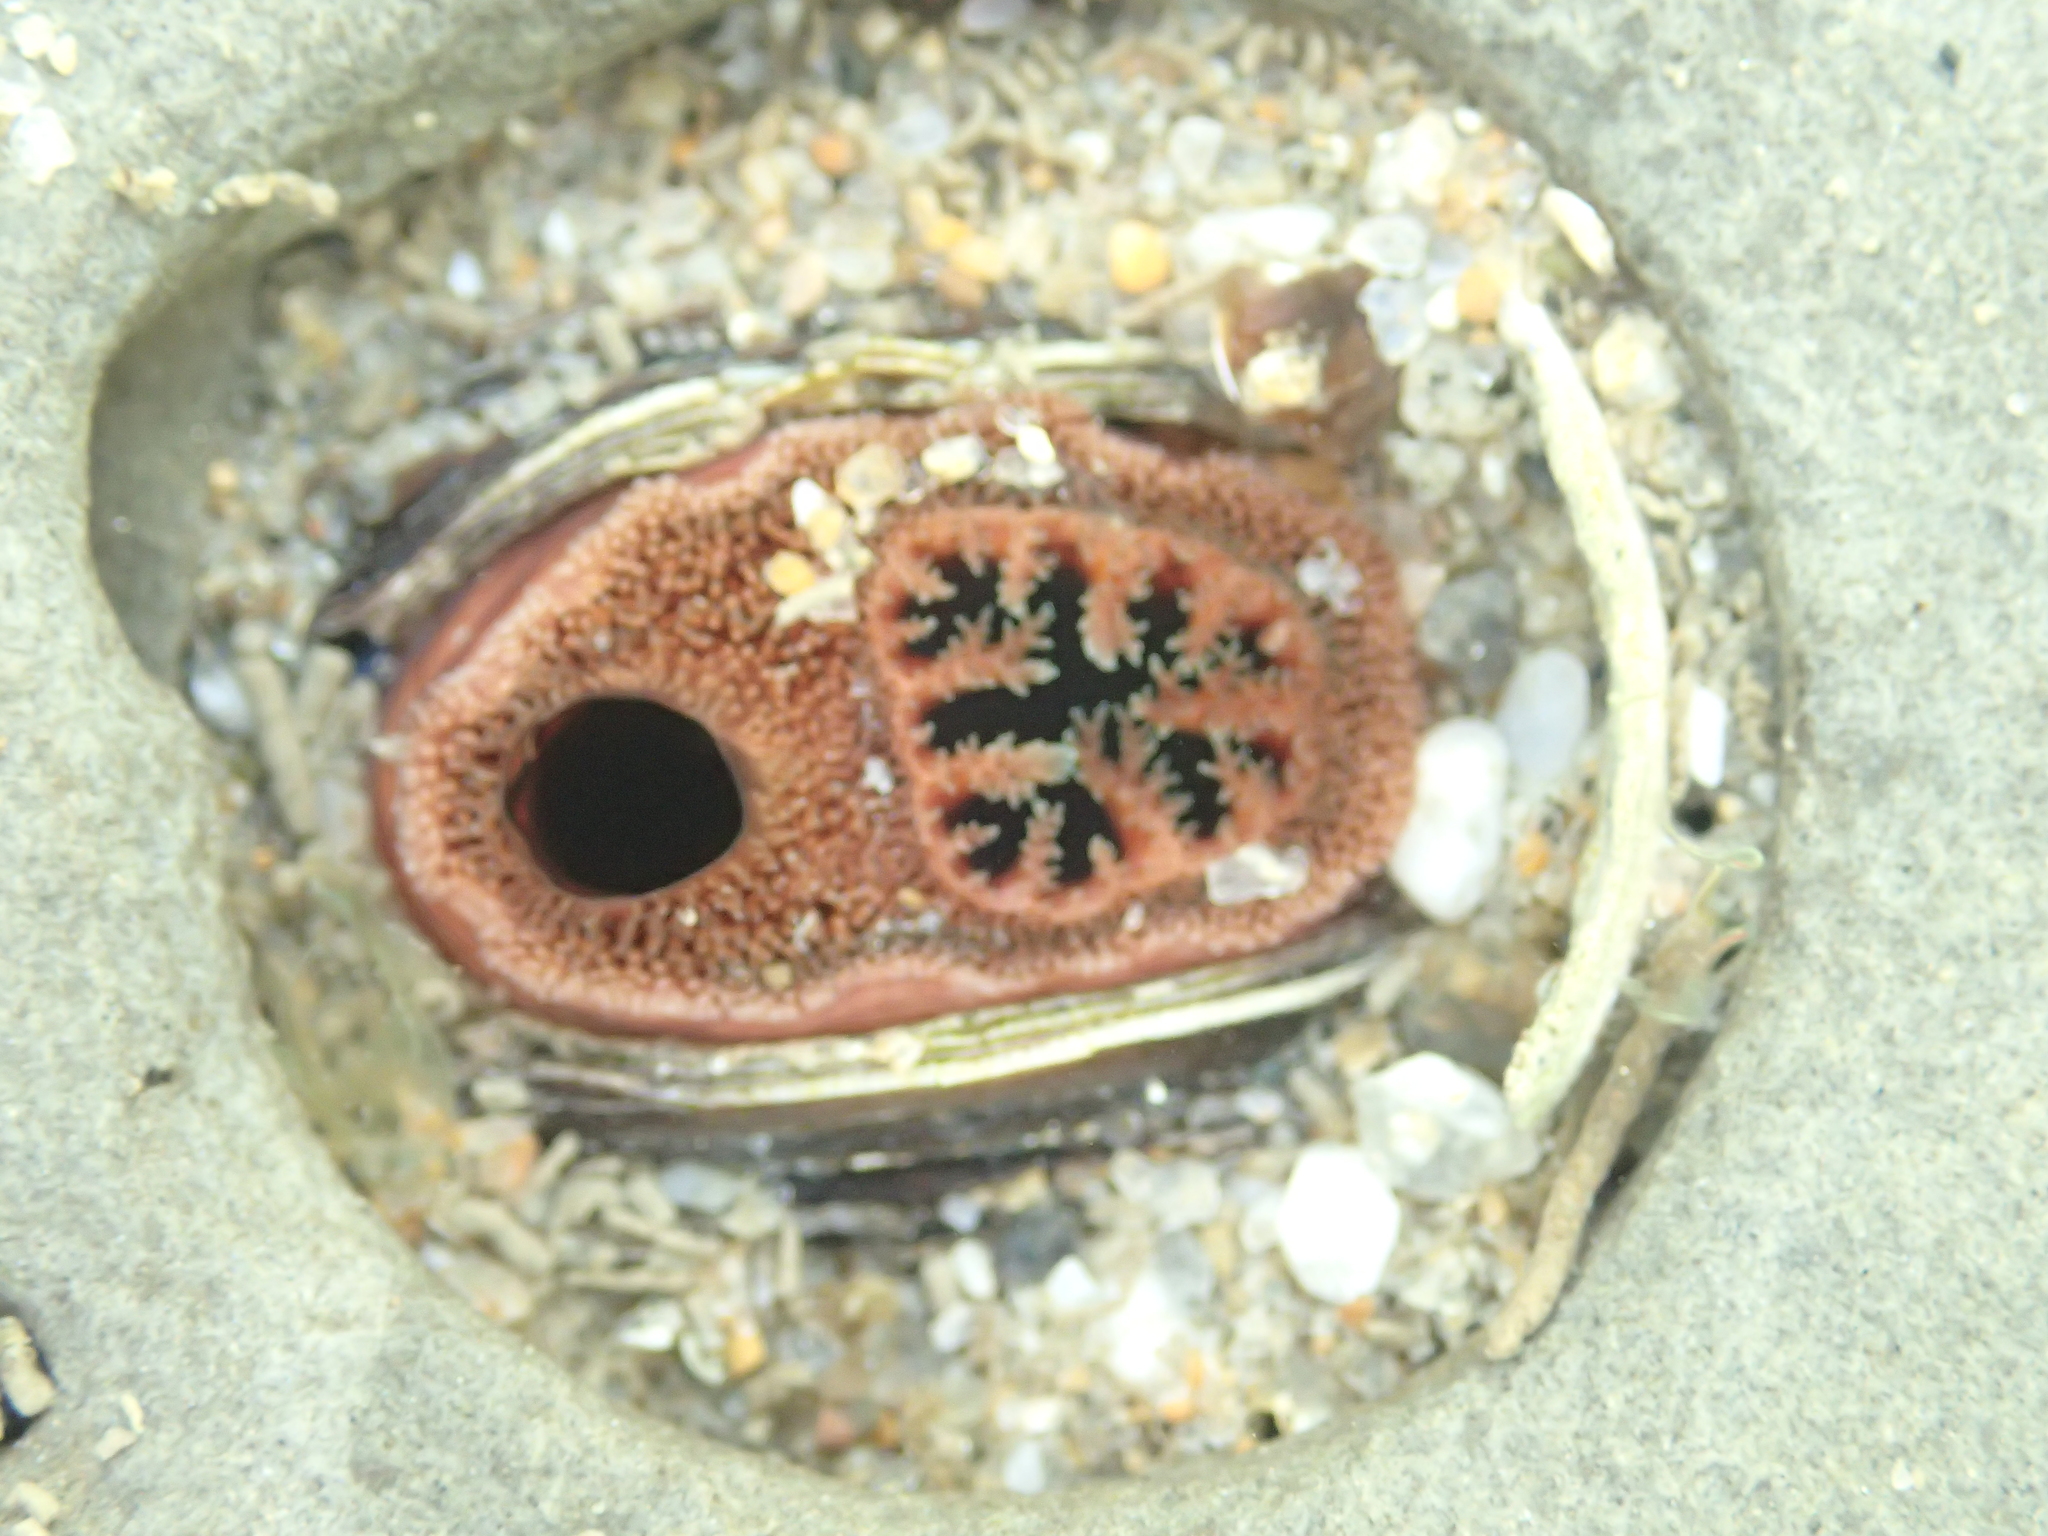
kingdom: Animalia
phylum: Mollusca
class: Bivalvia
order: Myida
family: Pholadidae
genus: Parapholas
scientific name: Parapholas californica
